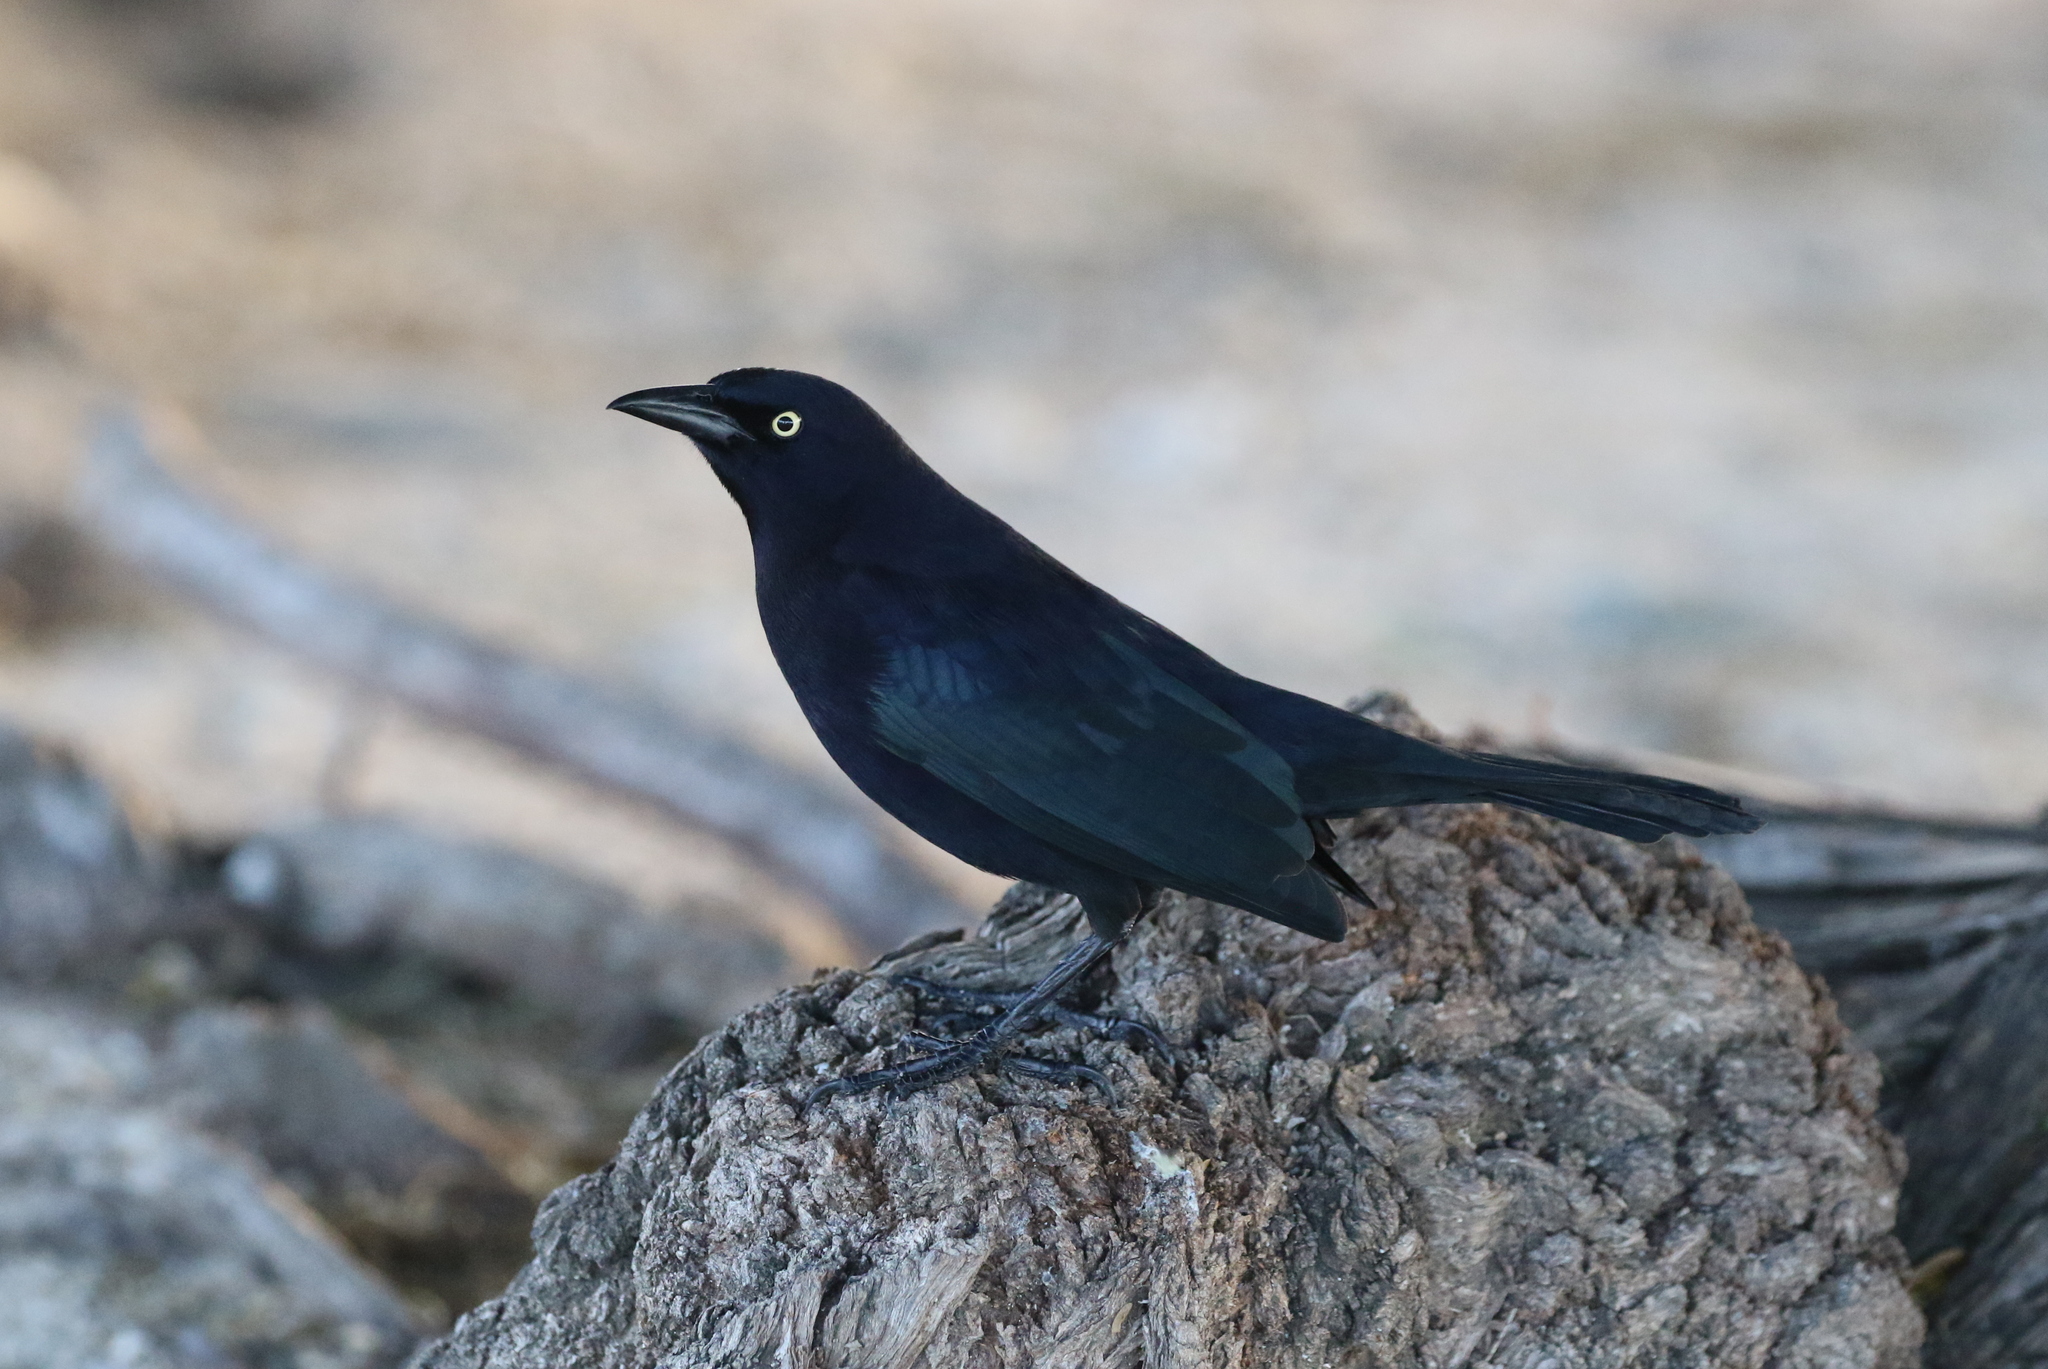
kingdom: Animalia
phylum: Chordata
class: Aves
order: Passeriformes
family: Icteridae
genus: Quiscalus
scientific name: Quiscalus lugubris
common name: Carib grackle
